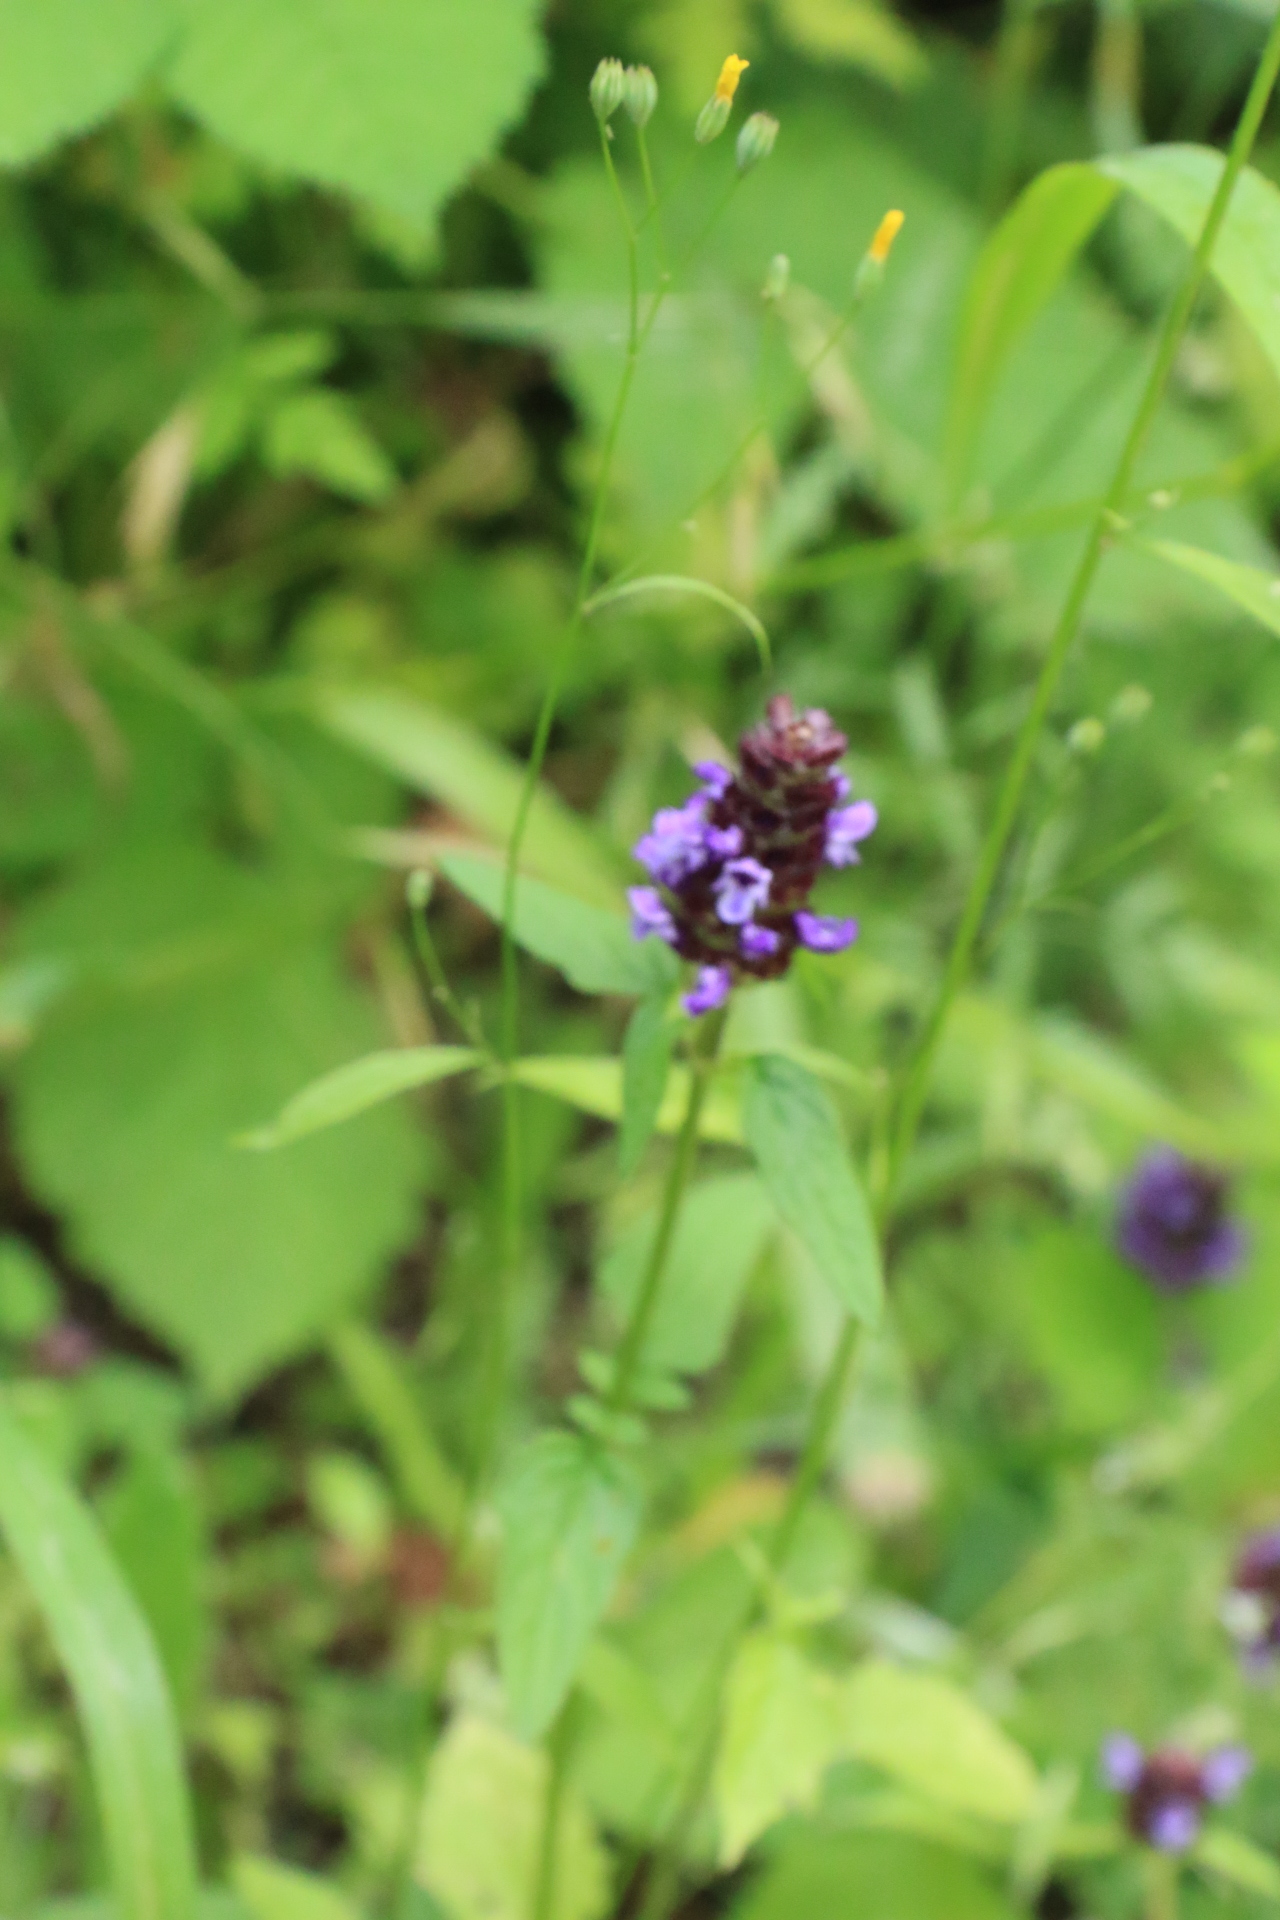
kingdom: Plantae
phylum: Tracheophyta
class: Magnoliopsida
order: Lamiales
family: Lamiaceae
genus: Prunella
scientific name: Prunella vulgaris
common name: Heal-all
